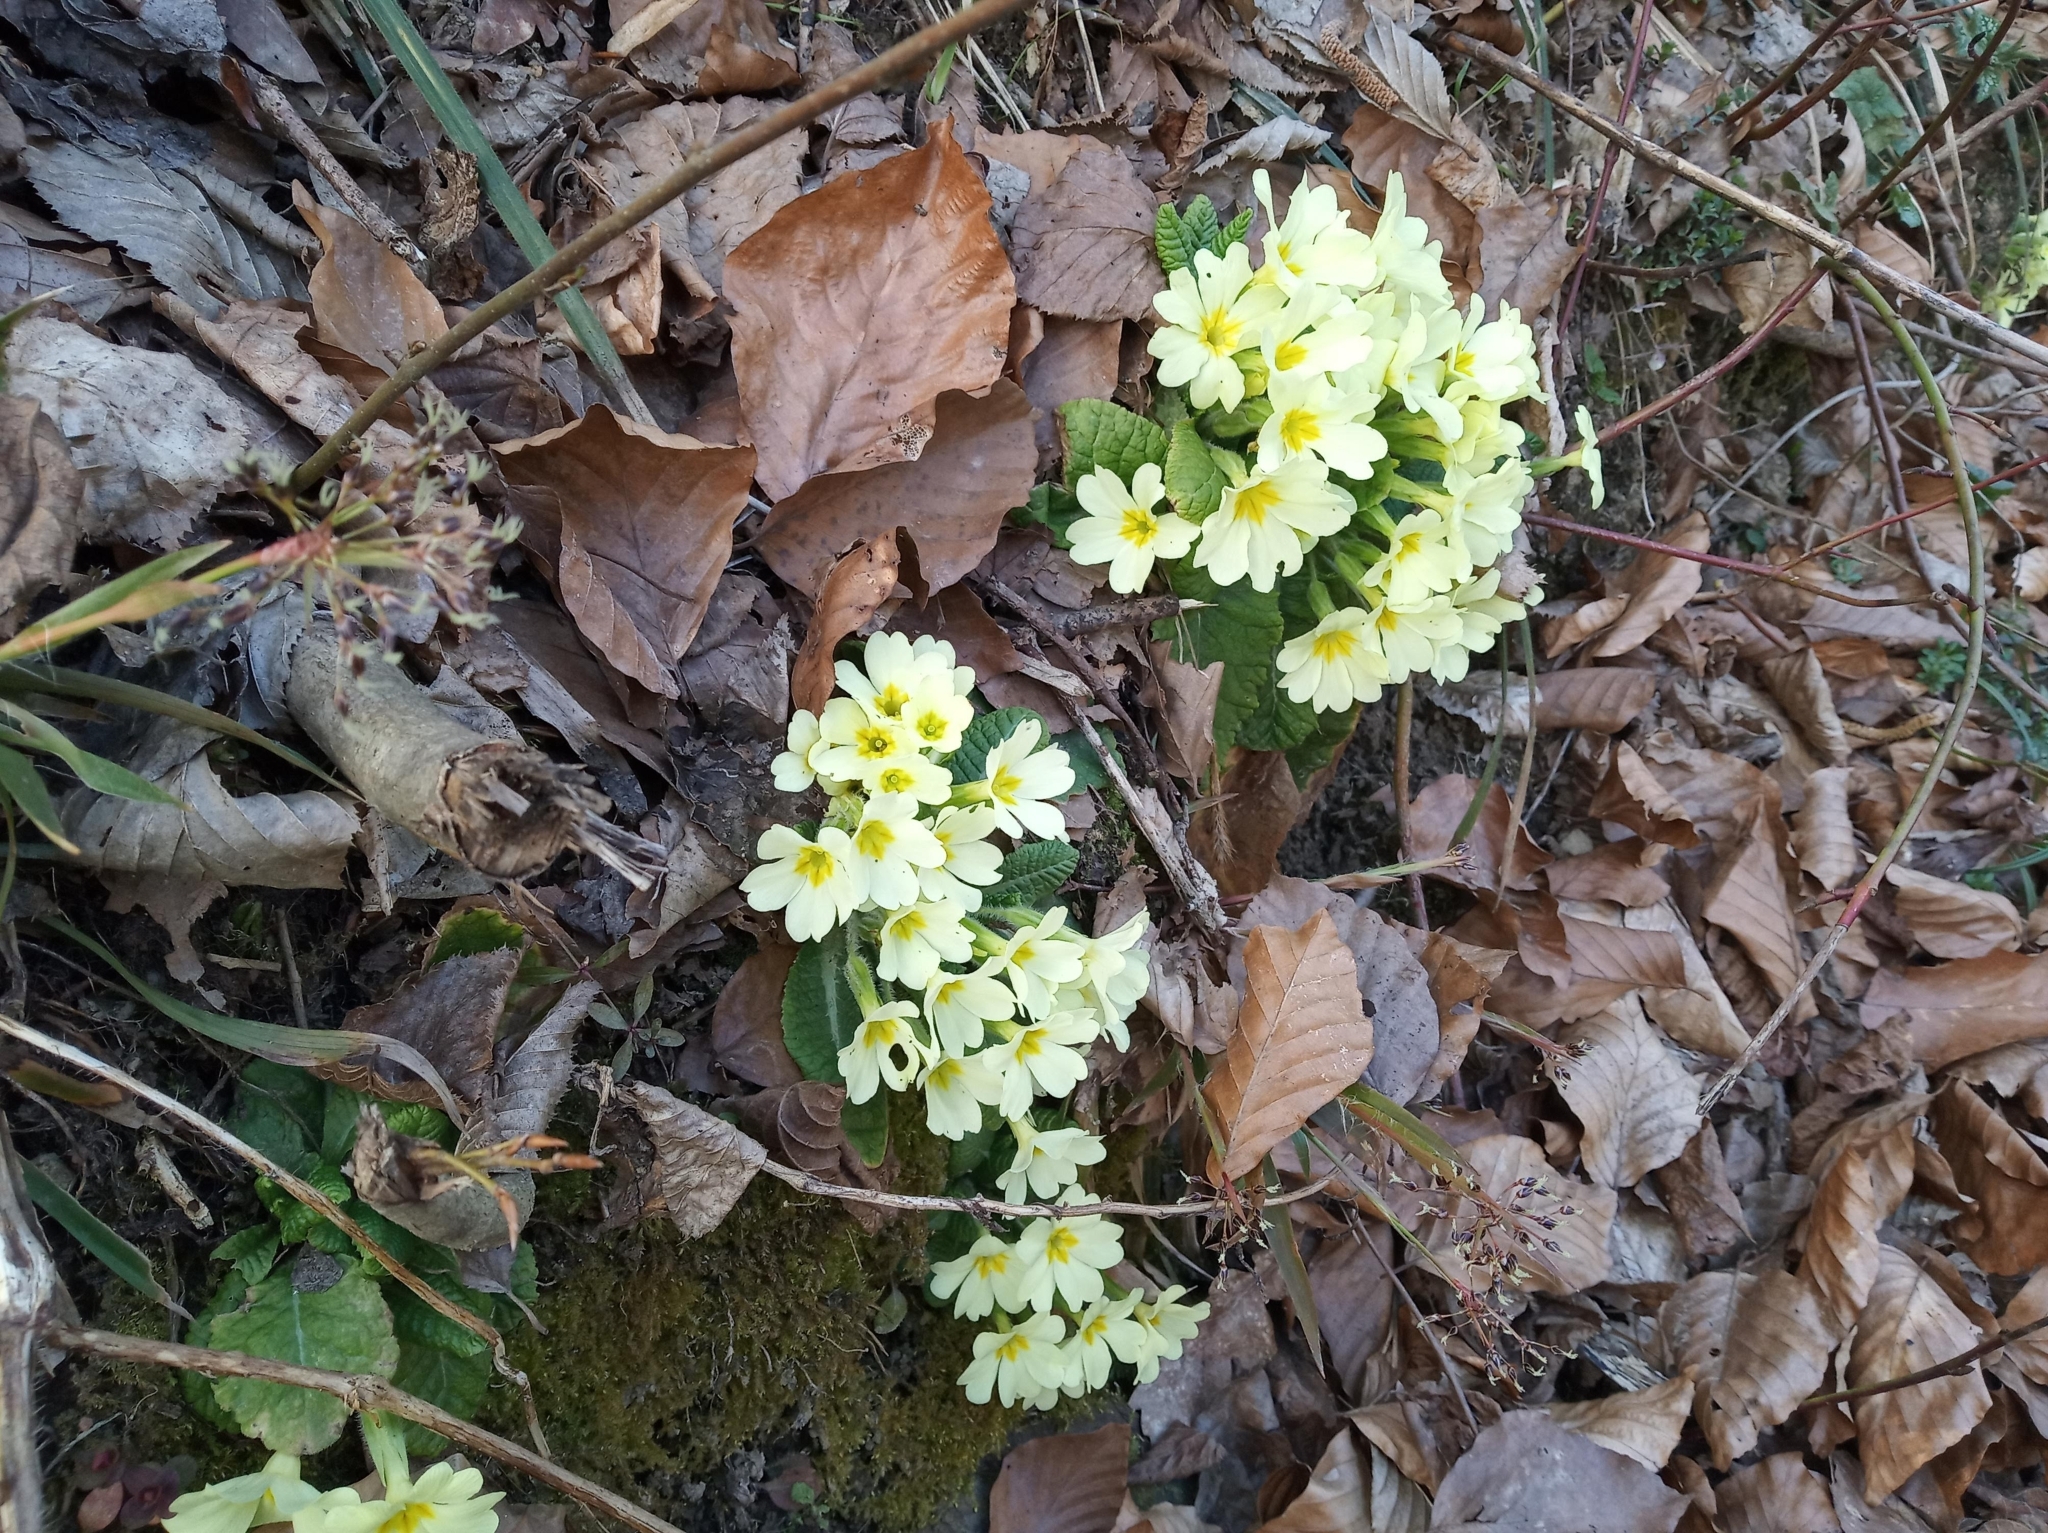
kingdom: Plantae
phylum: Tracheophyta
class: Magnoliopsida
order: Ericales
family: Primulaceae
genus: Primula
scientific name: Primula vulgaris
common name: Primrose
